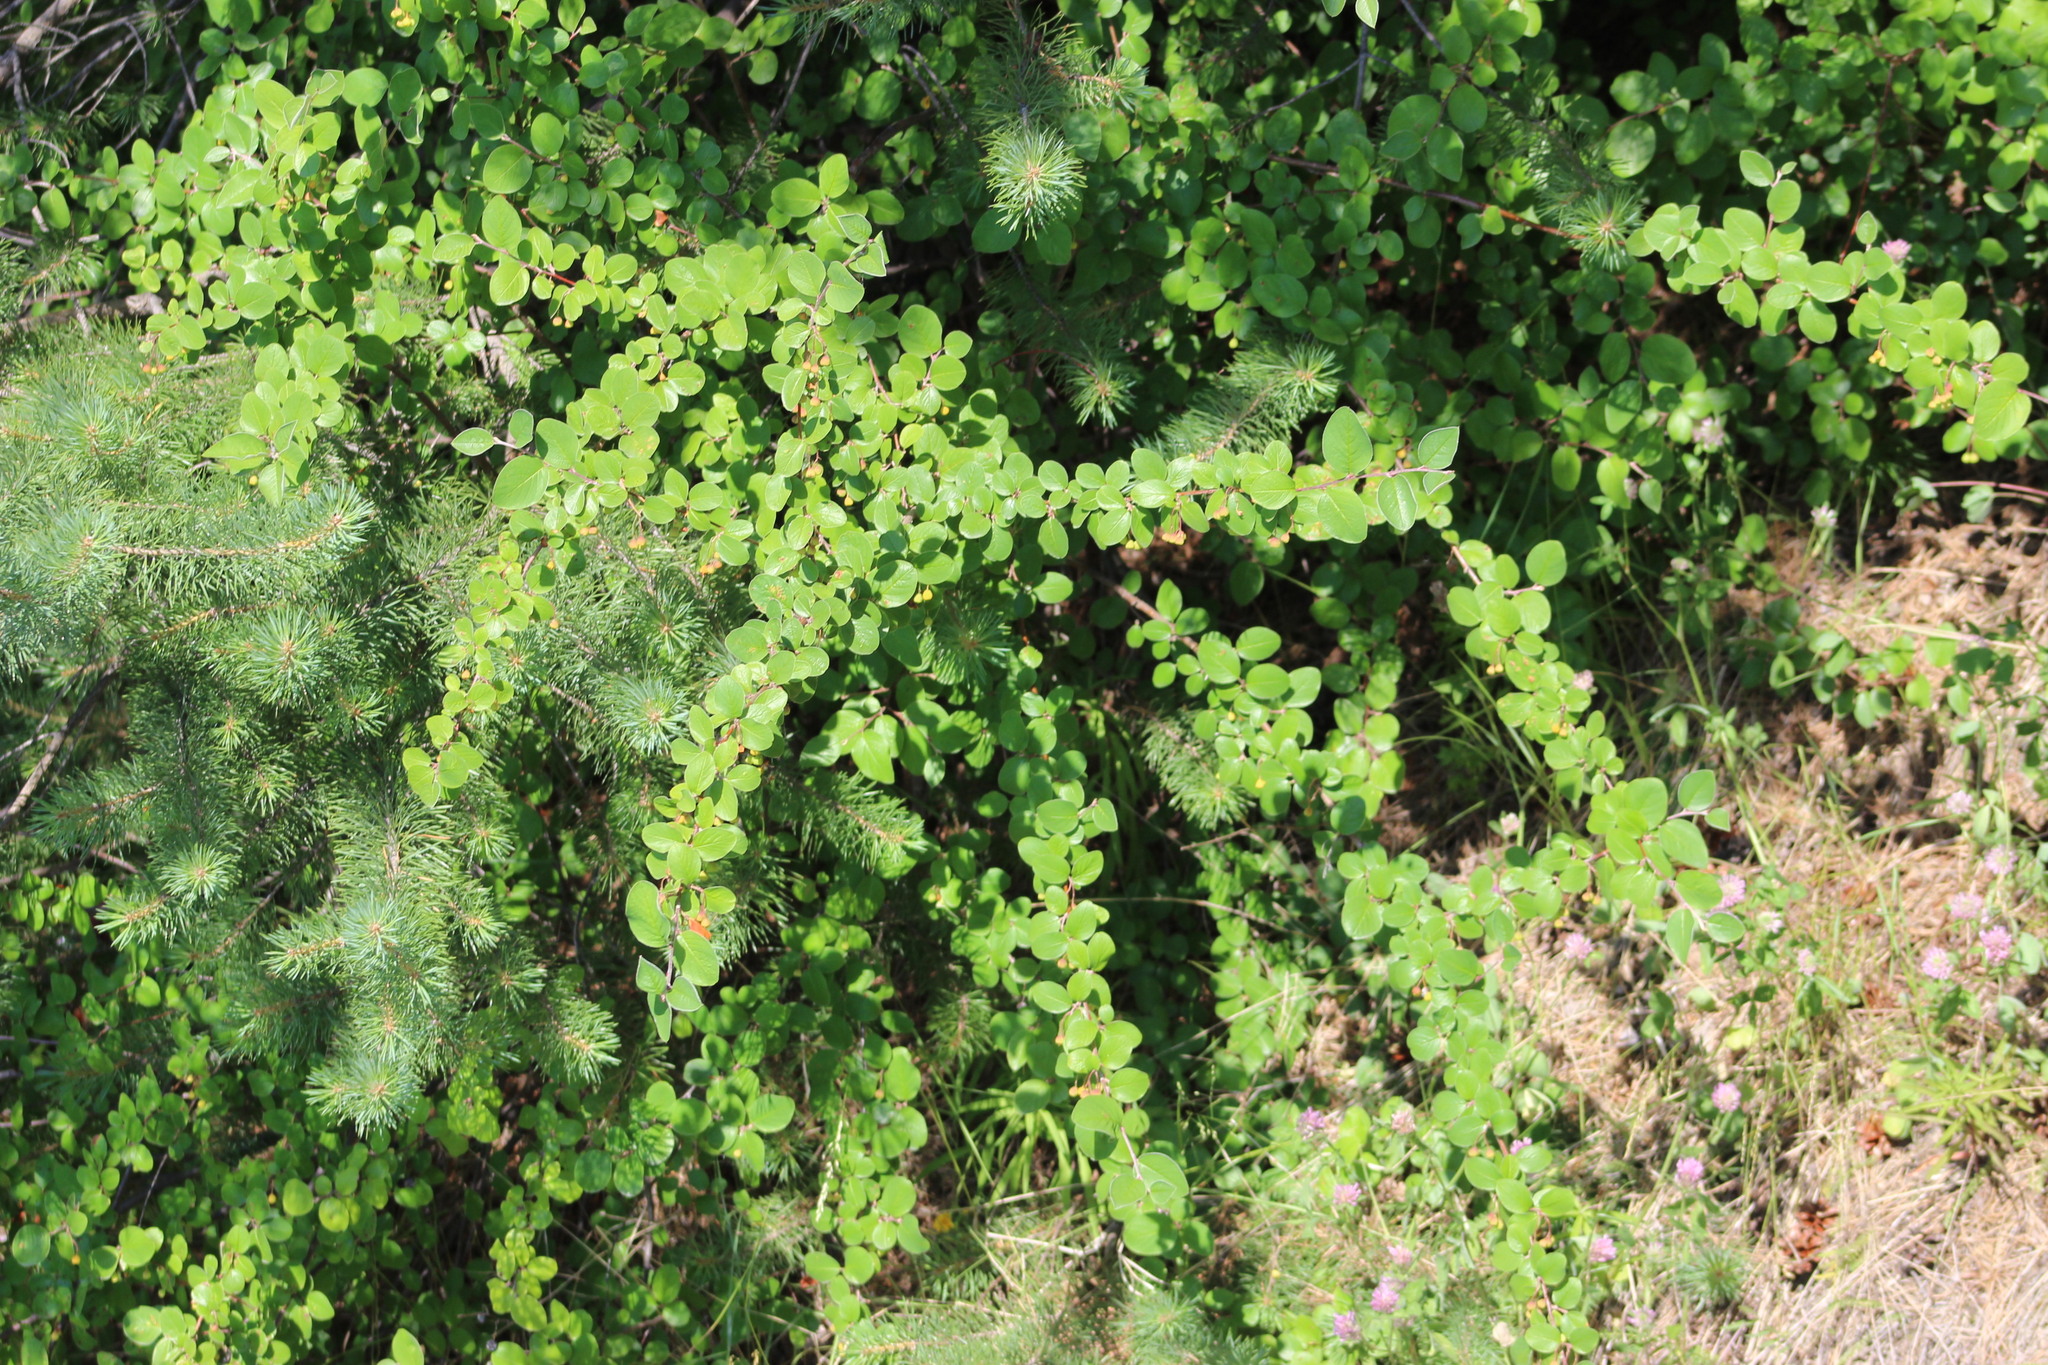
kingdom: Plantae
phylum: Tracheophyta
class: Magnoliopsida
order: Rosales
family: Rosaceae
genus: Cotoneaster
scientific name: Cotoneaster melanocarpus
